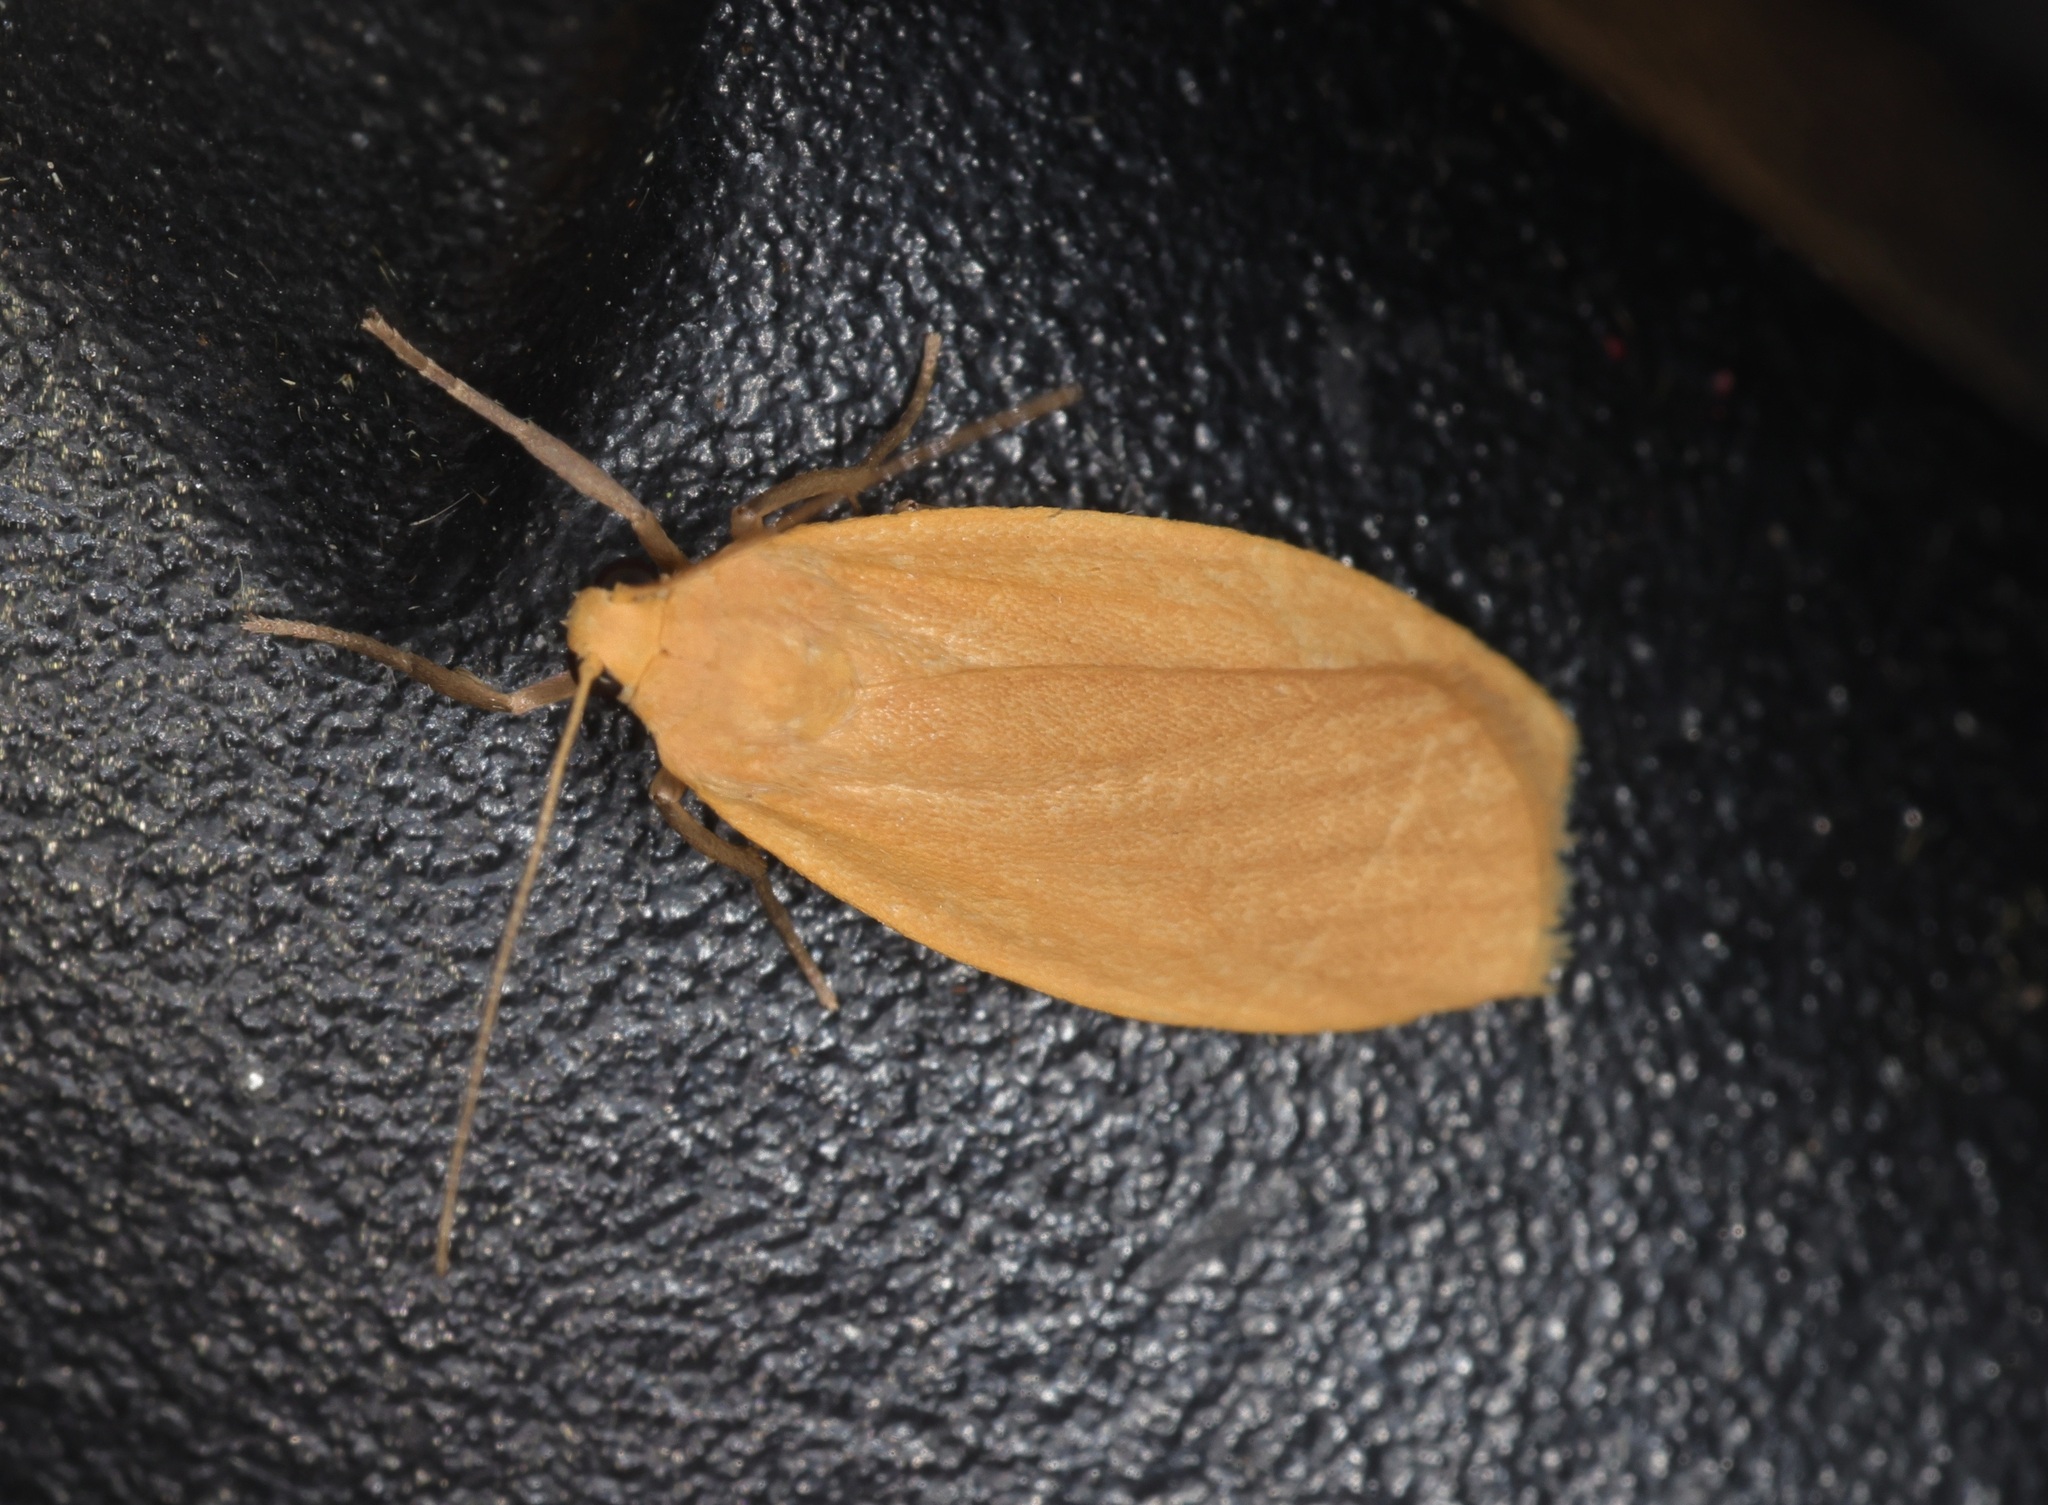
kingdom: Animalia
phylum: Arthropoda
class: Insecta
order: Lepidoptera
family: Erebidae
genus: Wittia
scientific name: Wittia klapperichi
